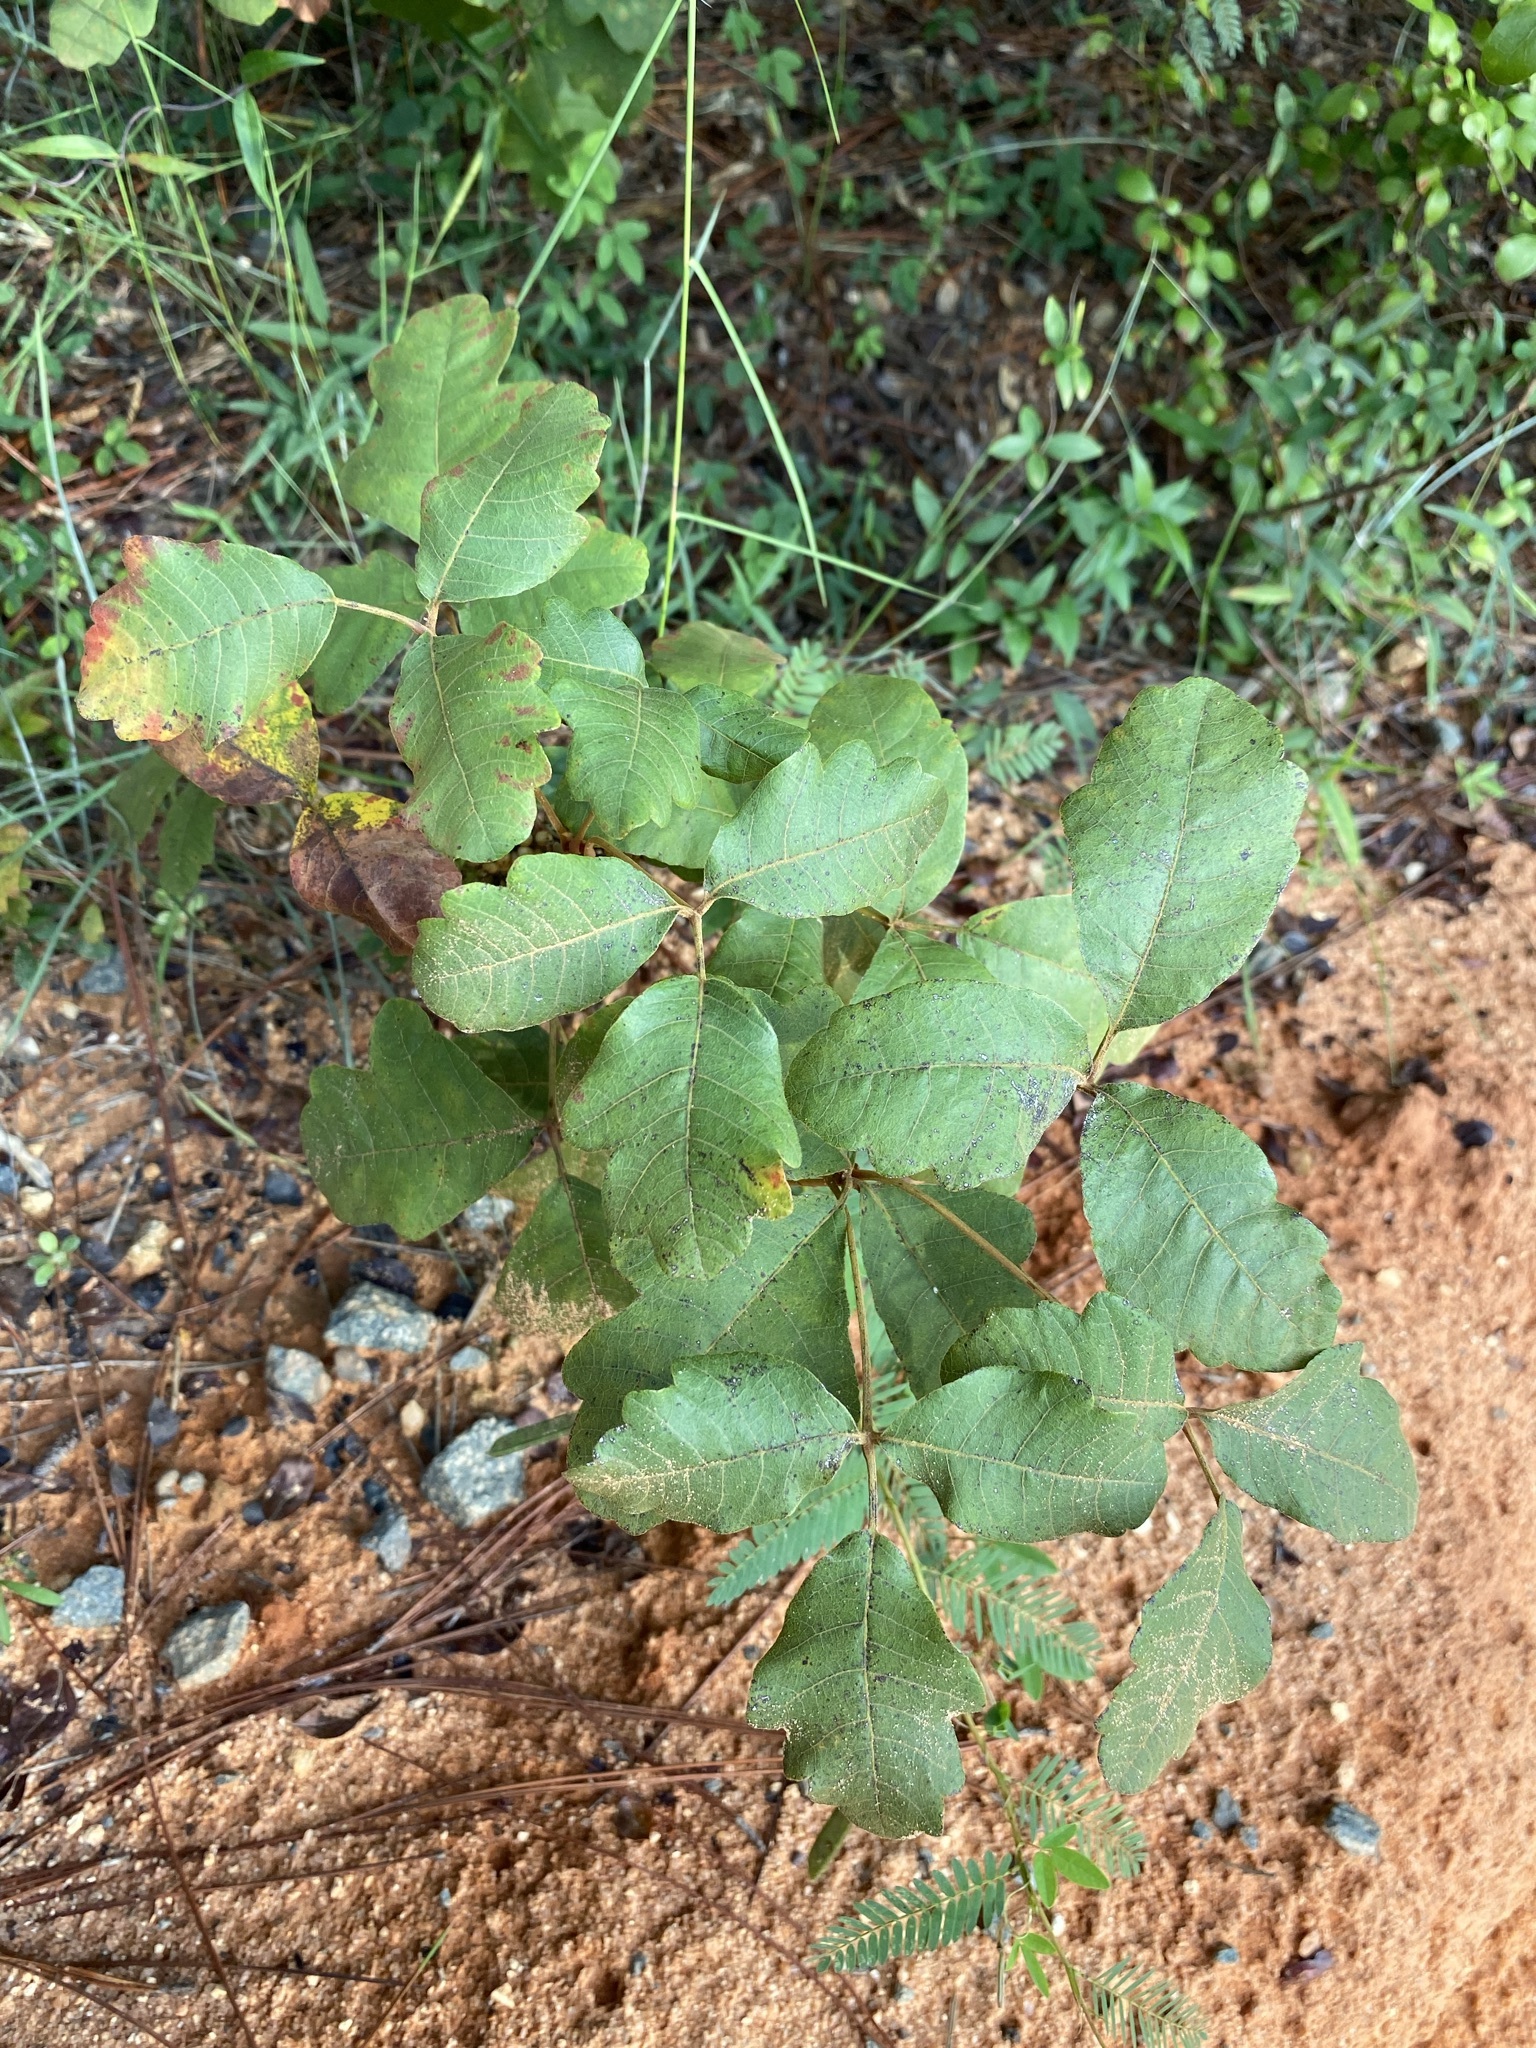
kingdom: Plantae
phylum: Tracheophyta
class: Magnoliopsida
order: Sapindales
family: Anacardiaceae
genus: Toxicodendron
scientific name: Toxicodendron pubescens
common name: Eastern poison-oak
